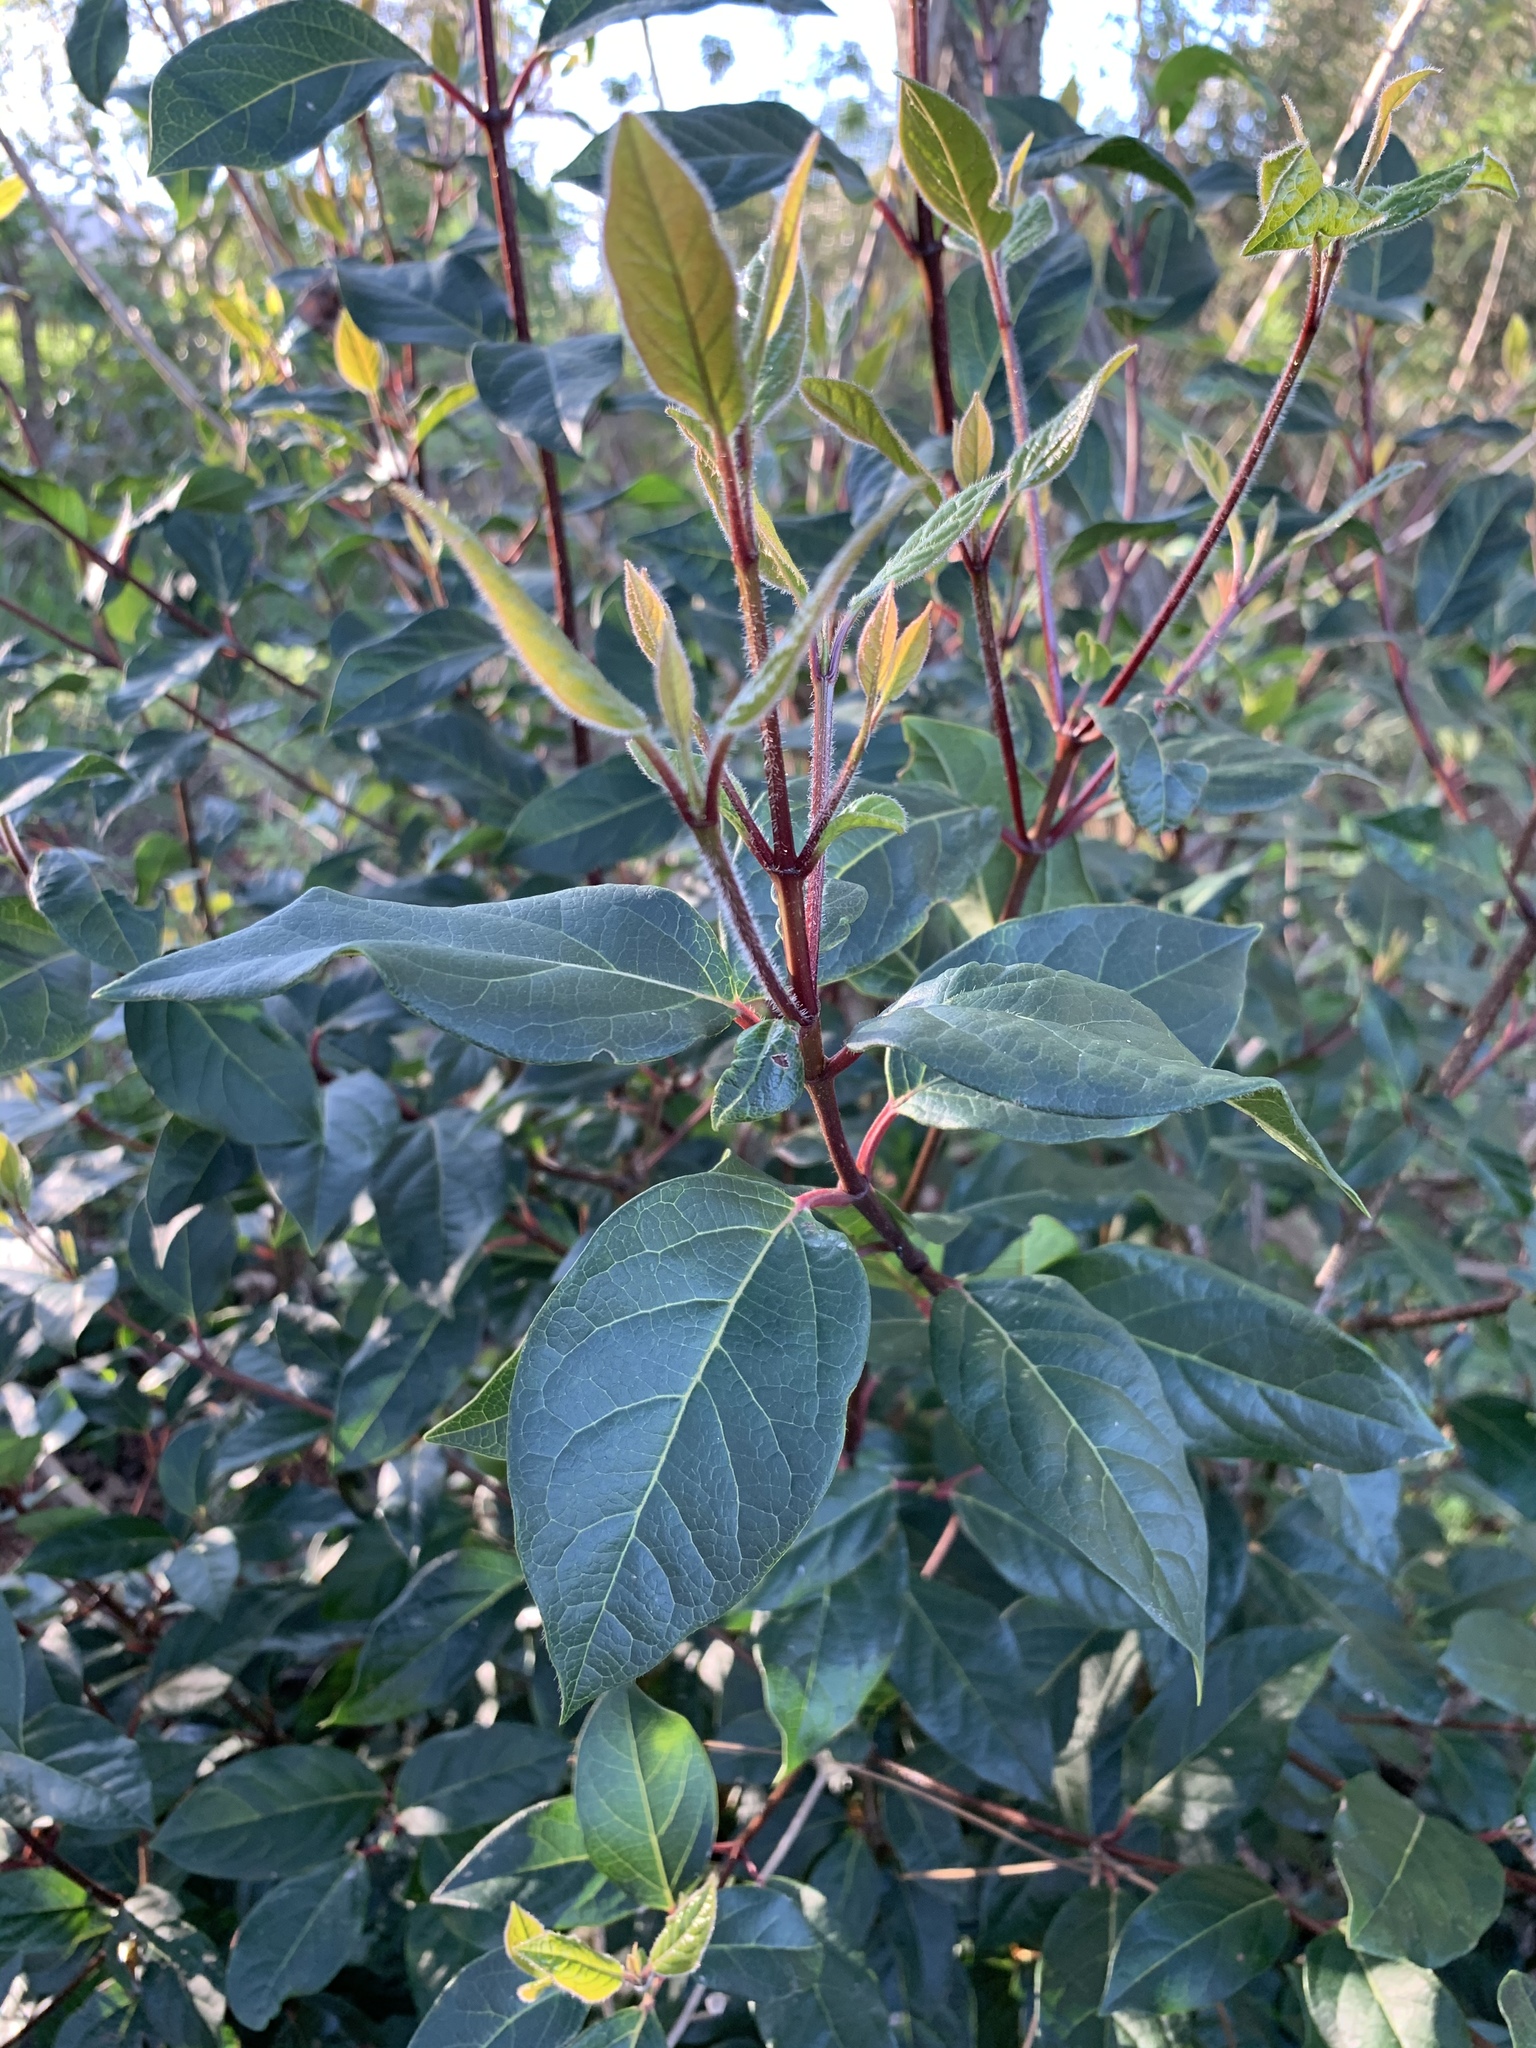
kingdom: Plantae
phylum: Tracheophyta
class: Magnoliopsida
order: Dipsacales
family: Viburnaceae
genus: Viburnum
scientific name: Viburnum tinus
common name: Laurustinus
